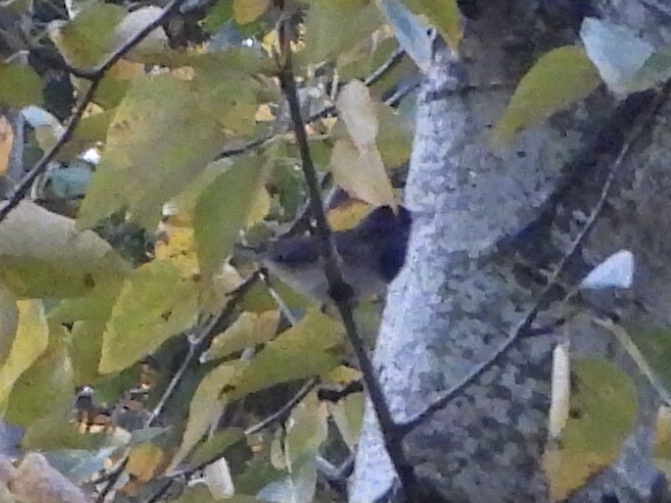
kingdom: Animalia
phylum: Chordata
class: Aves
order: Passeriformes
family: Passerellidae
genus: Junco
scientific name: Junco hyemalis
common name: Dark-eyed junco
